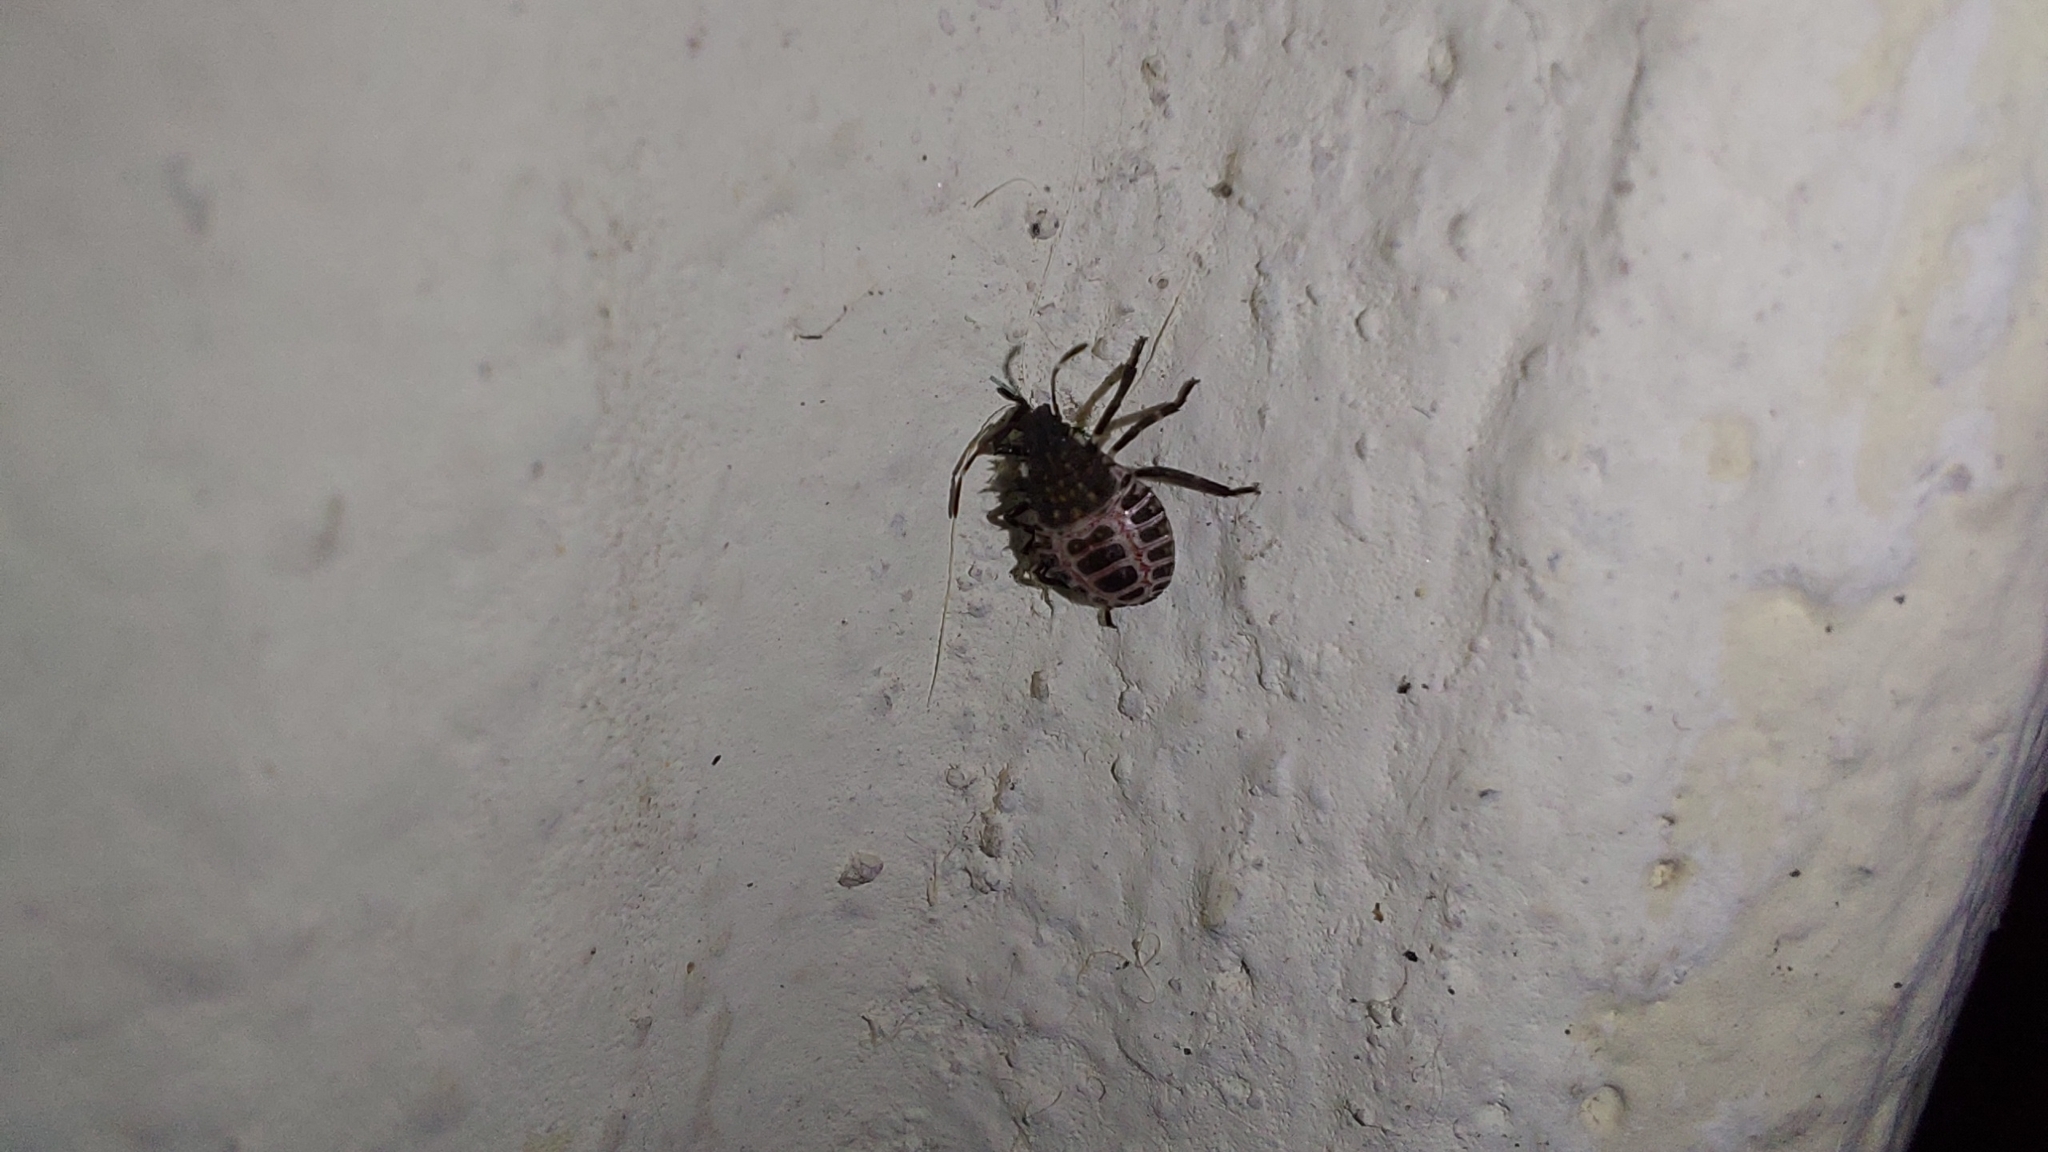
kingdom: Animalia
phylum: Arthropoda
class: Insecta
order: Hemiptera
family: Pentatomidae
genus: Halyomorpha
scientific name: Halyomorpha halys
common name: Brown marmorated stink bug
